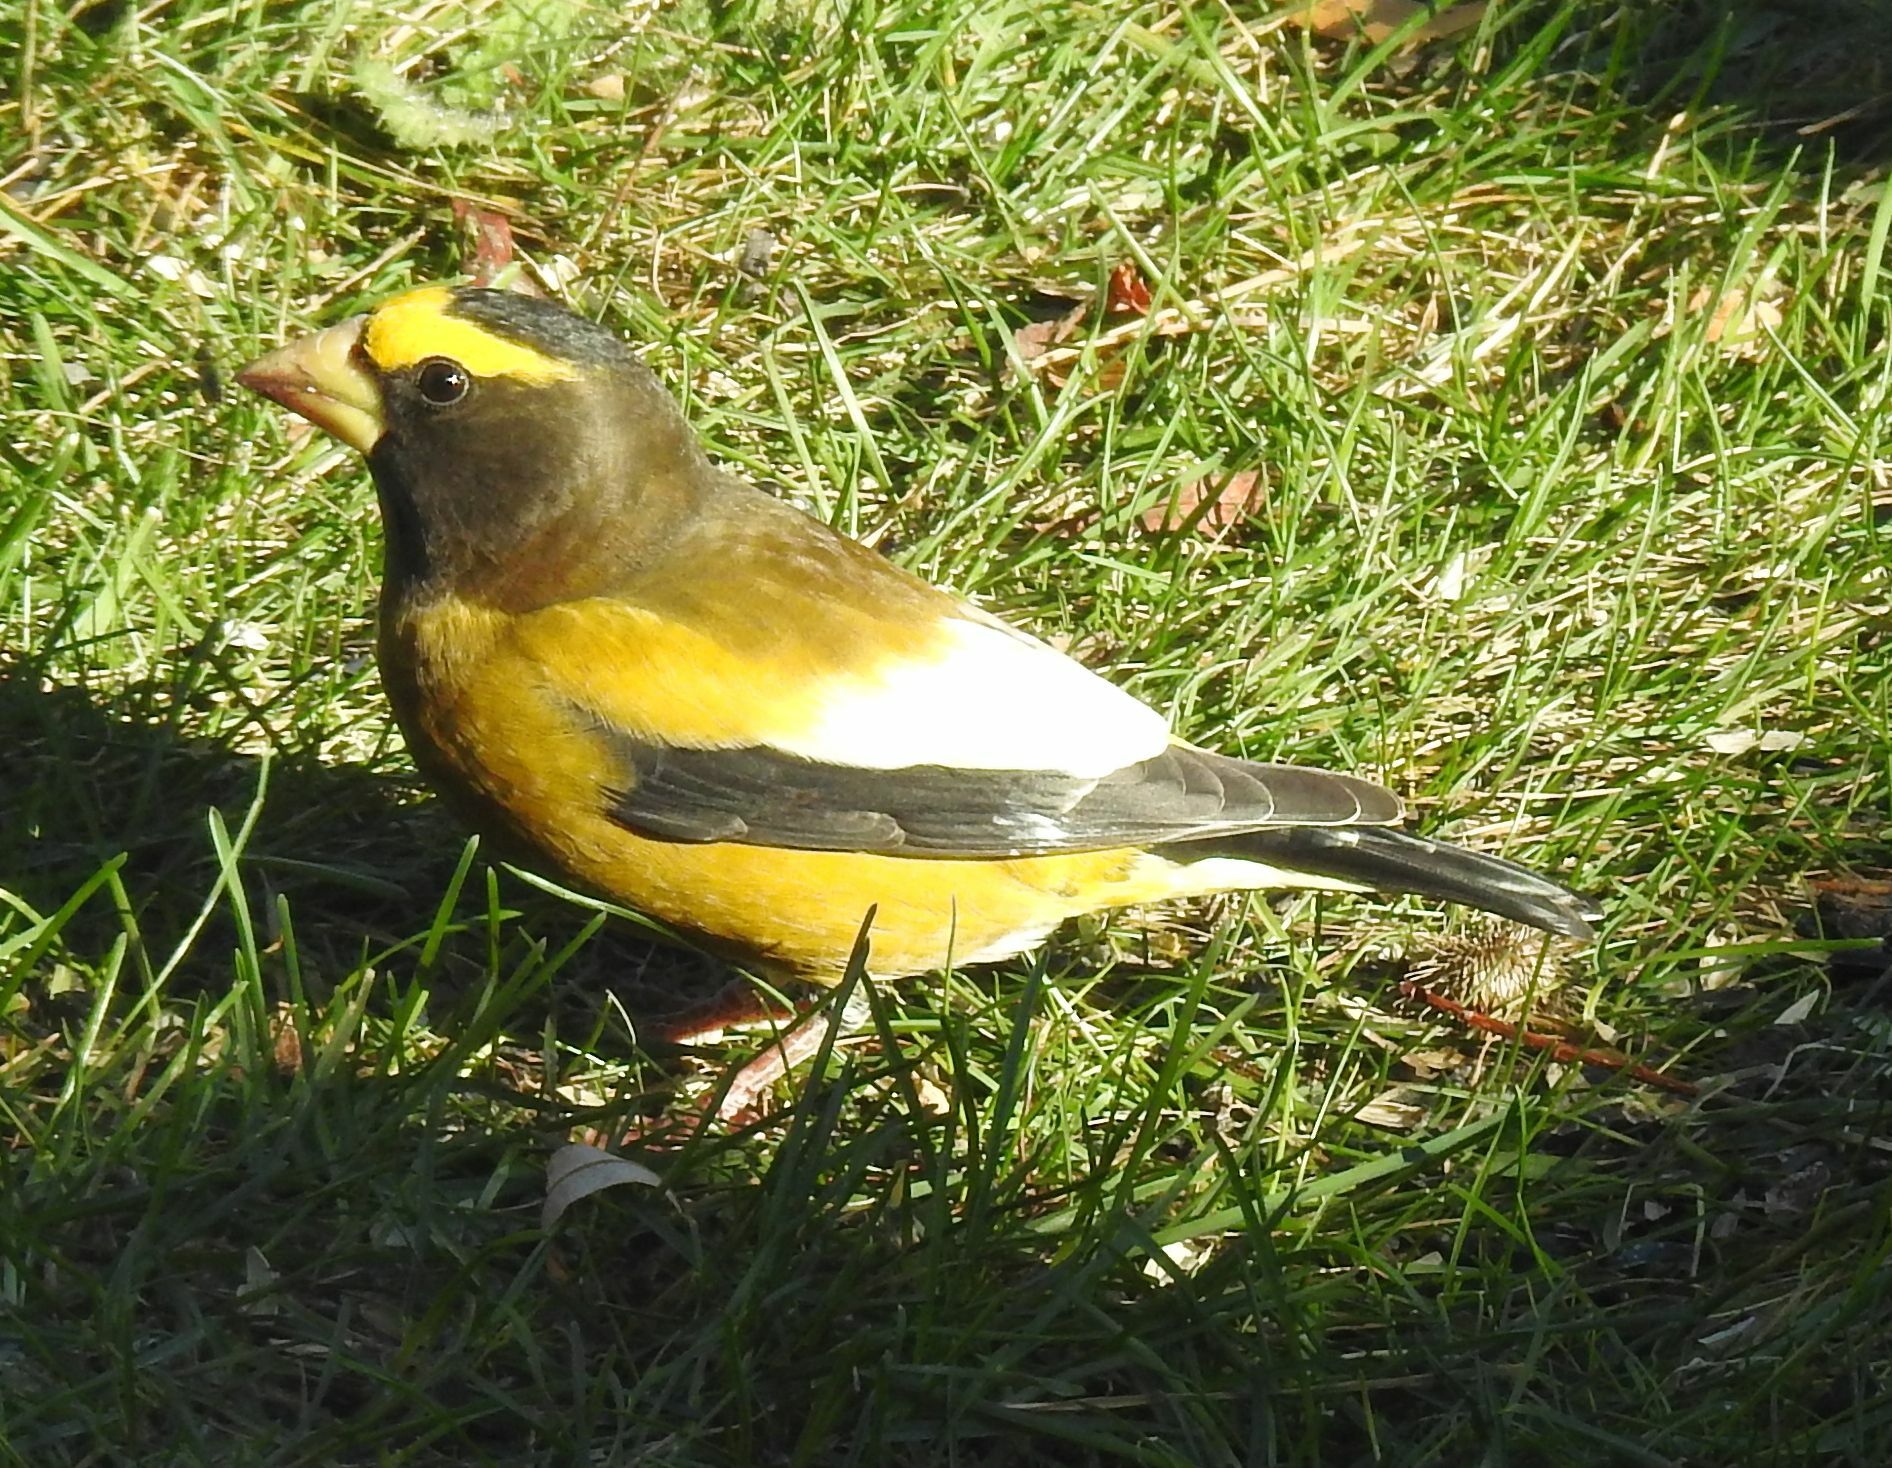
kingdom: Animalia
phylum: Chordata
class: Aves
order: Passeriformes
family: Fringillidae
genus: Hesperiphona
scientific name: Hesperiphona vespertina
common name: Evening grosbeak
